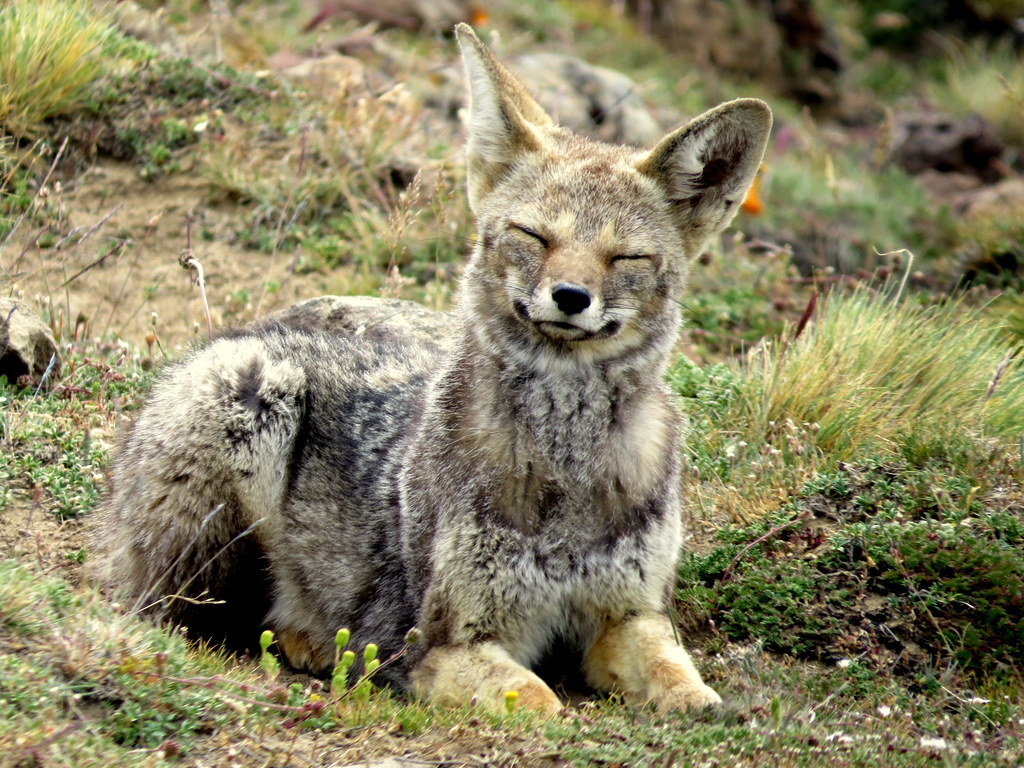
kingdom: Animalia
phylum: Chordata
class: Mammalia
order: Carnivora
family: Canidae
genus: Lycalopex
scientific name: Lycalopex gymnocercus
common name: Pampas fox
